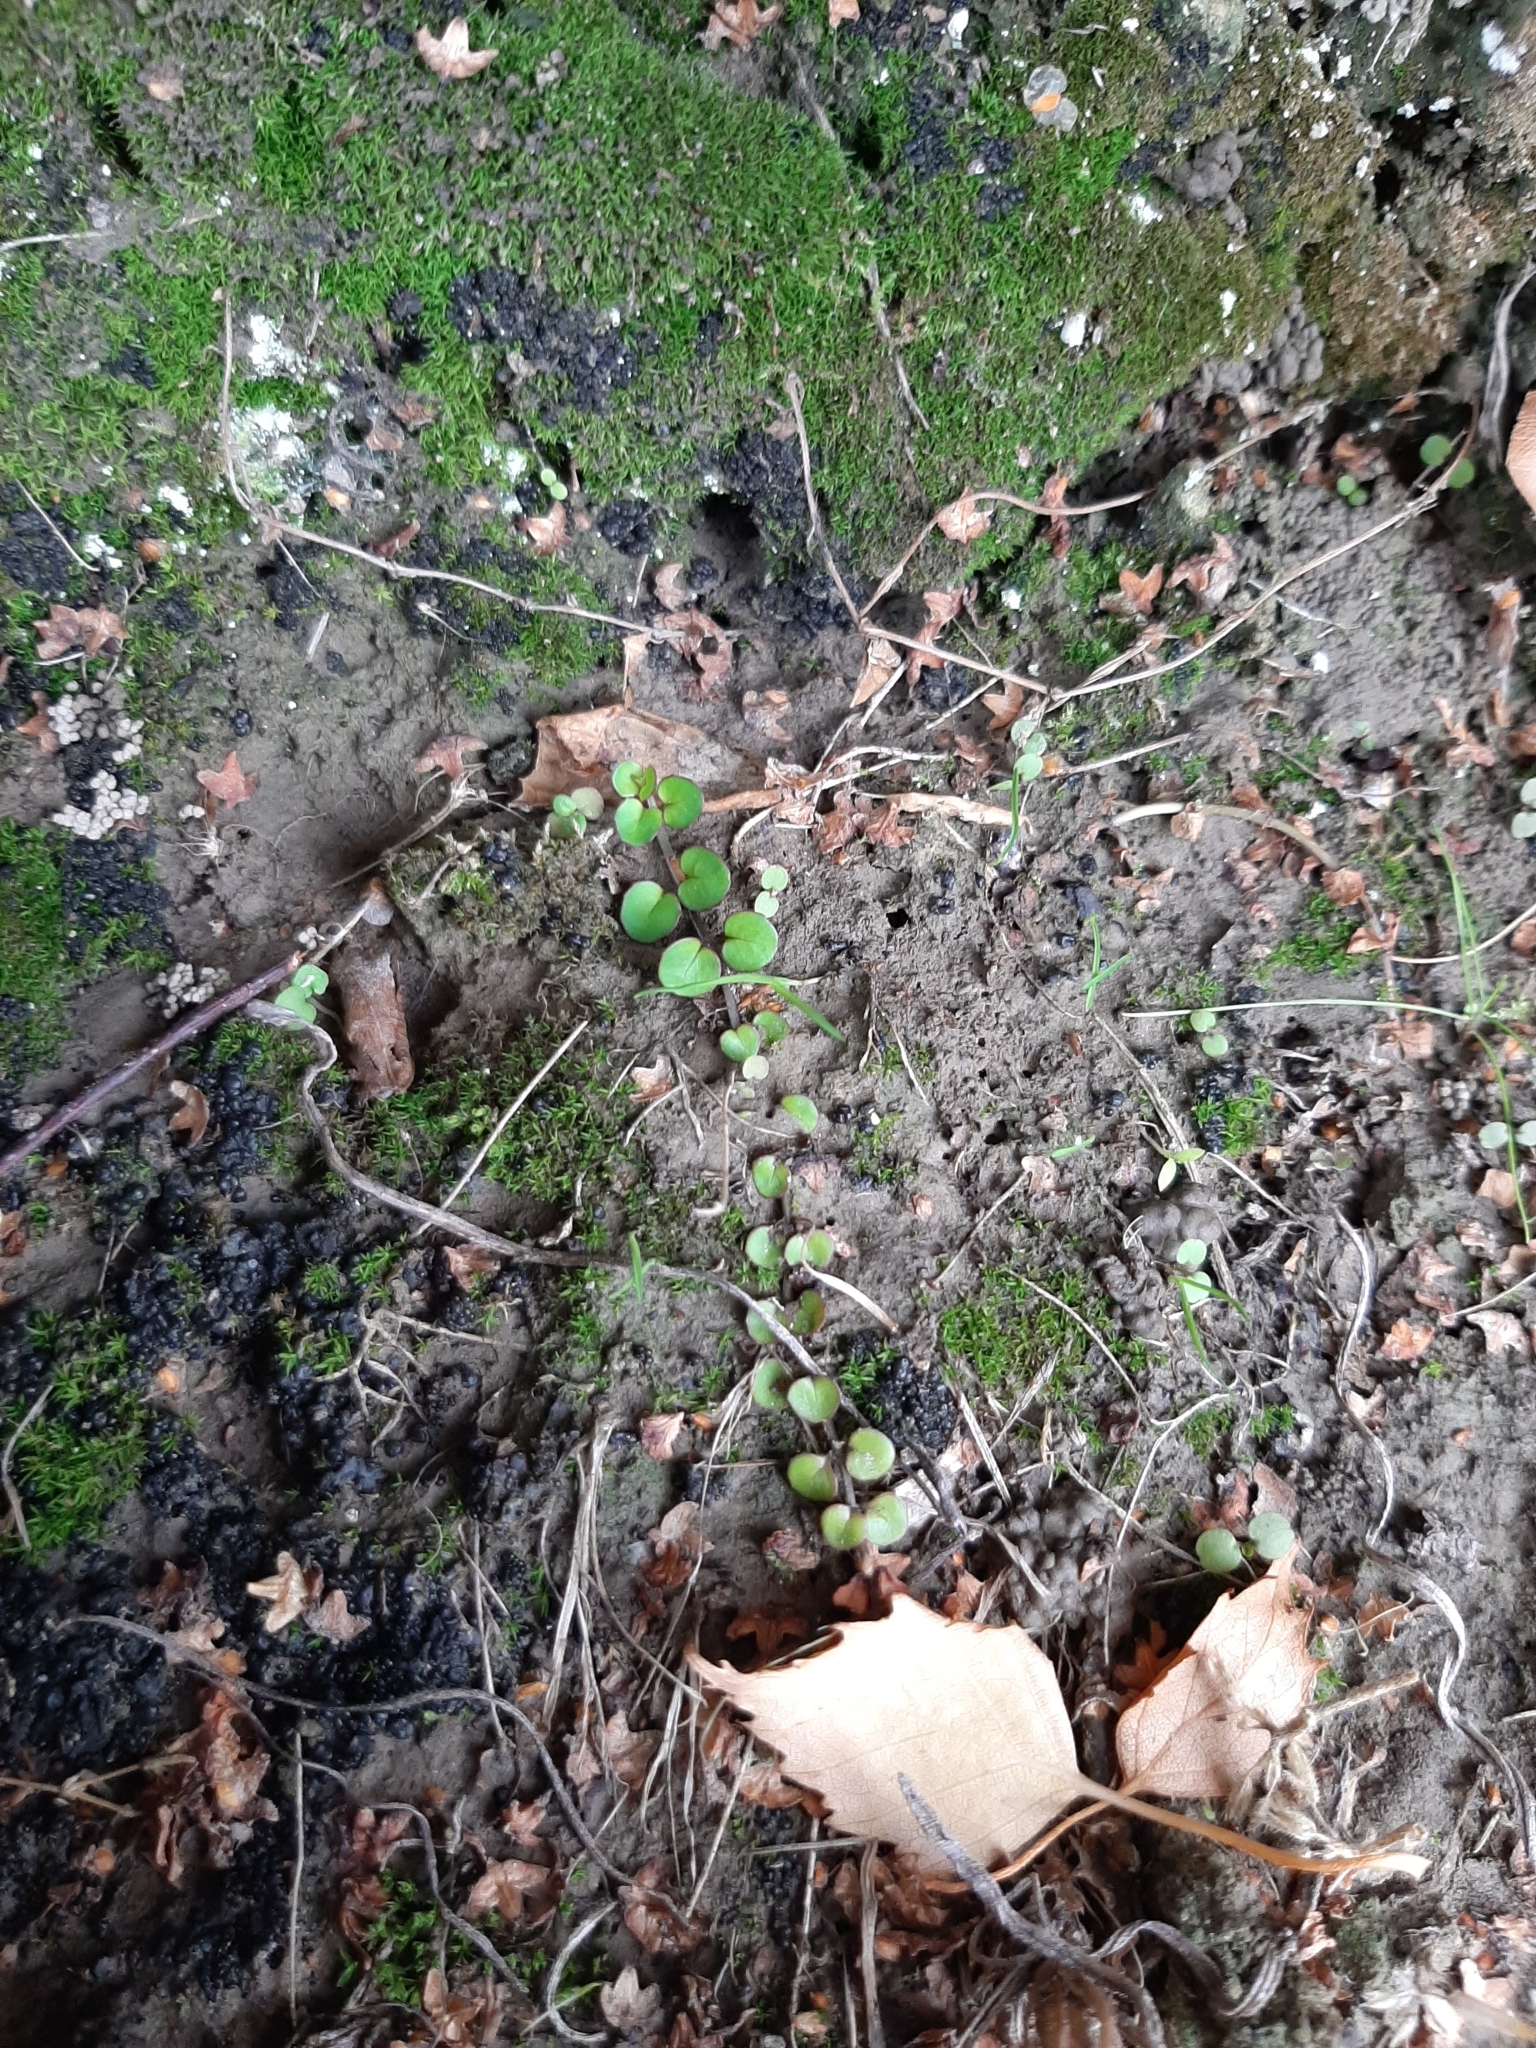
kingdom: Plantae
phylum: Tracheophyta
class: Magnoliopsida
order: Myrtales
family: Onagraceae
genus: Epilobium
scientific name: Epilobium nummularifolium
